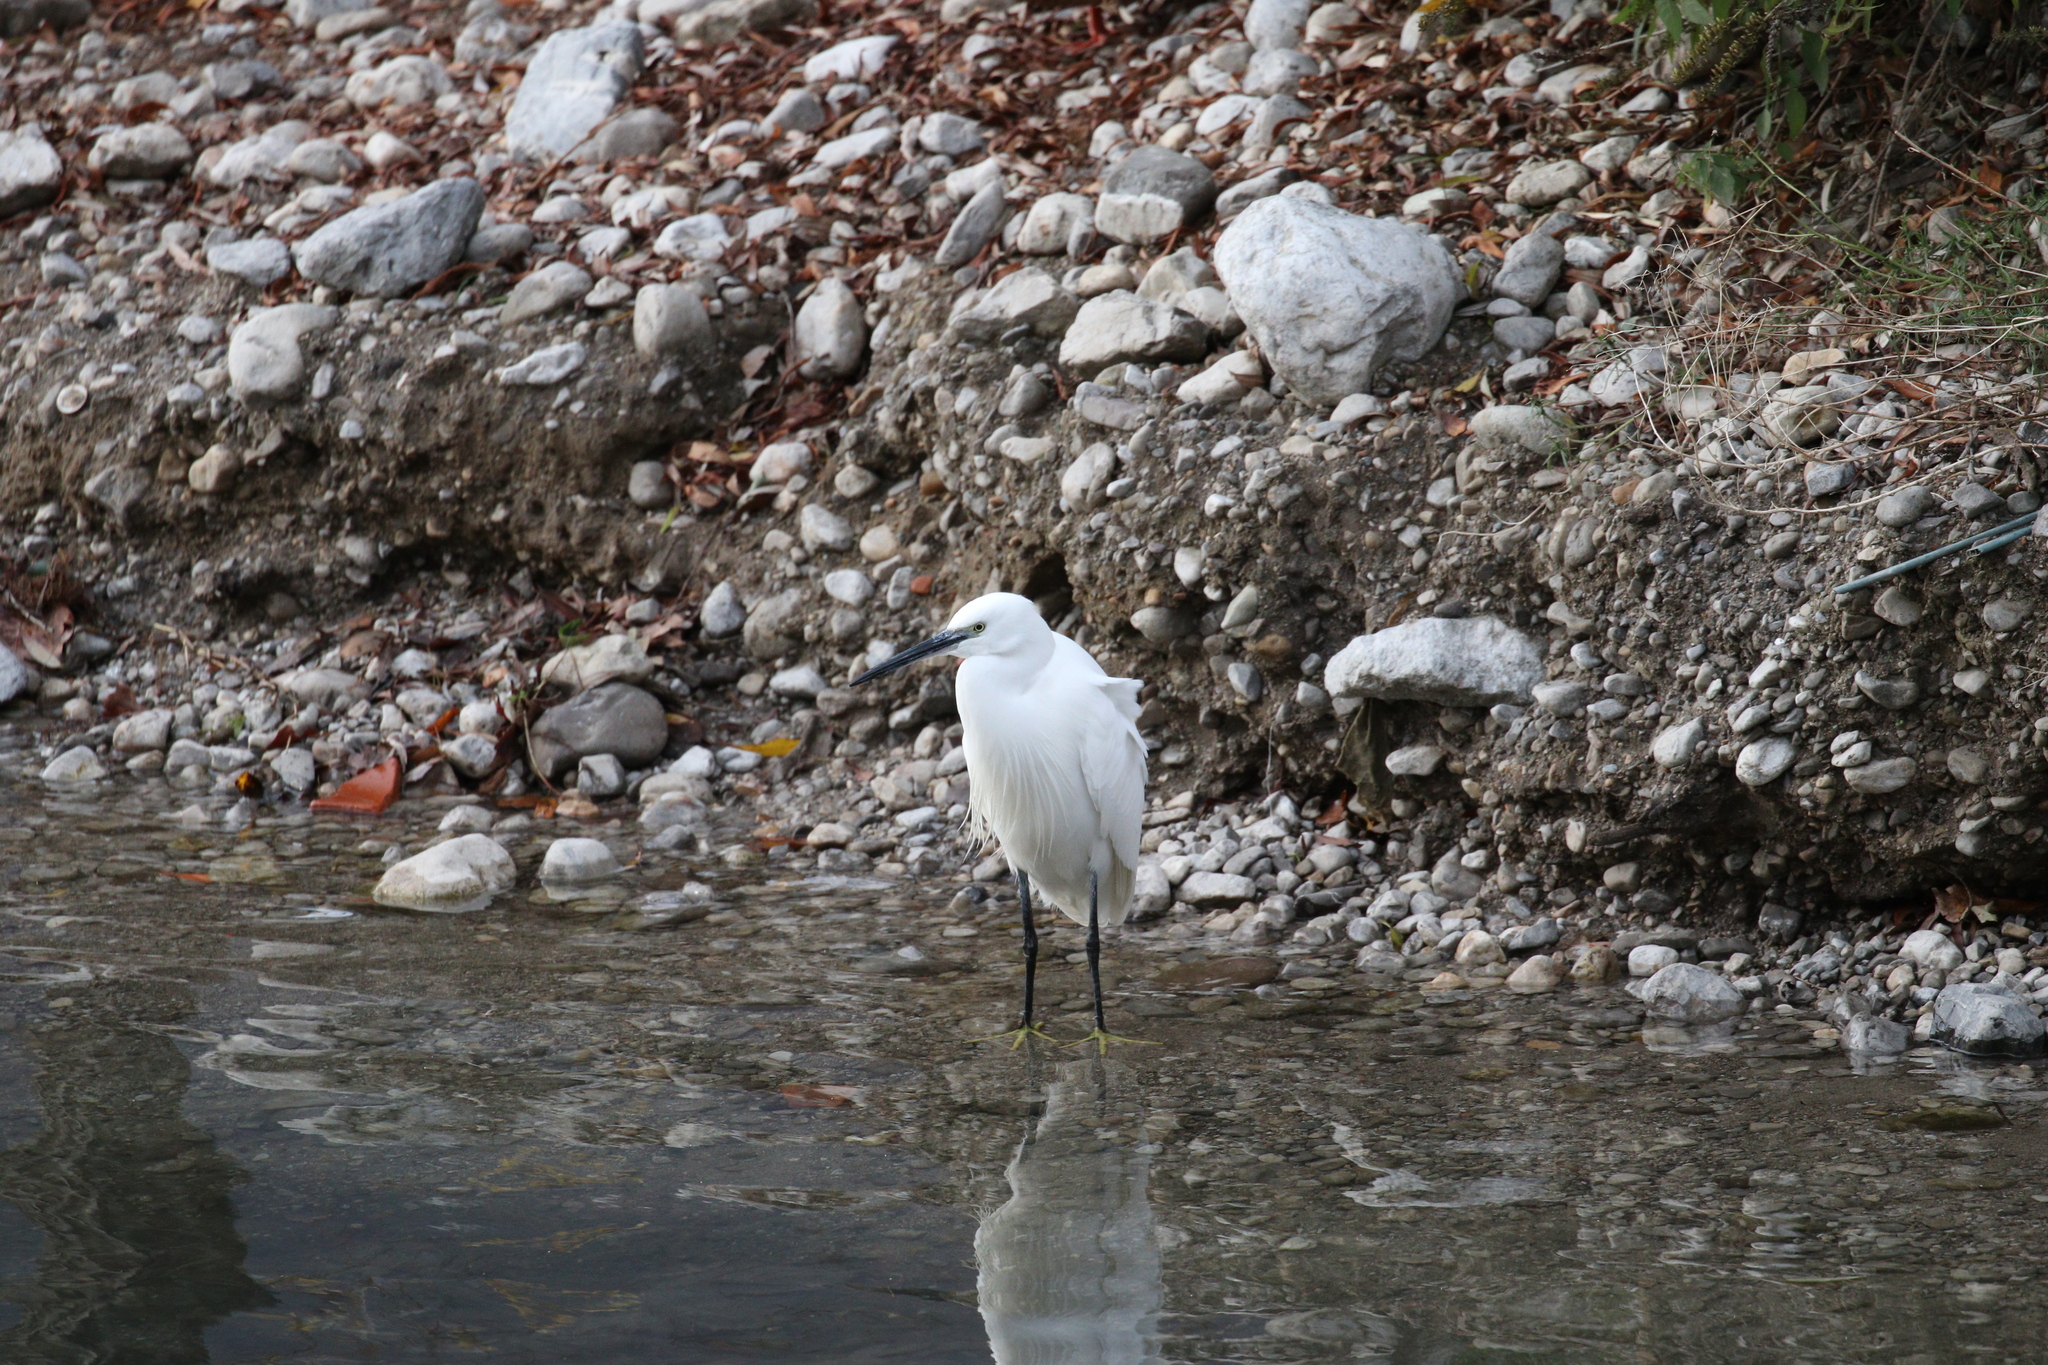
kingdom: Animalia
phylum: Chordata
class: Aves
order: Pelecaniformes
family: Ardeidae
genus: Egretta
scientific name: Egretta garzetta
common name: Little egret
